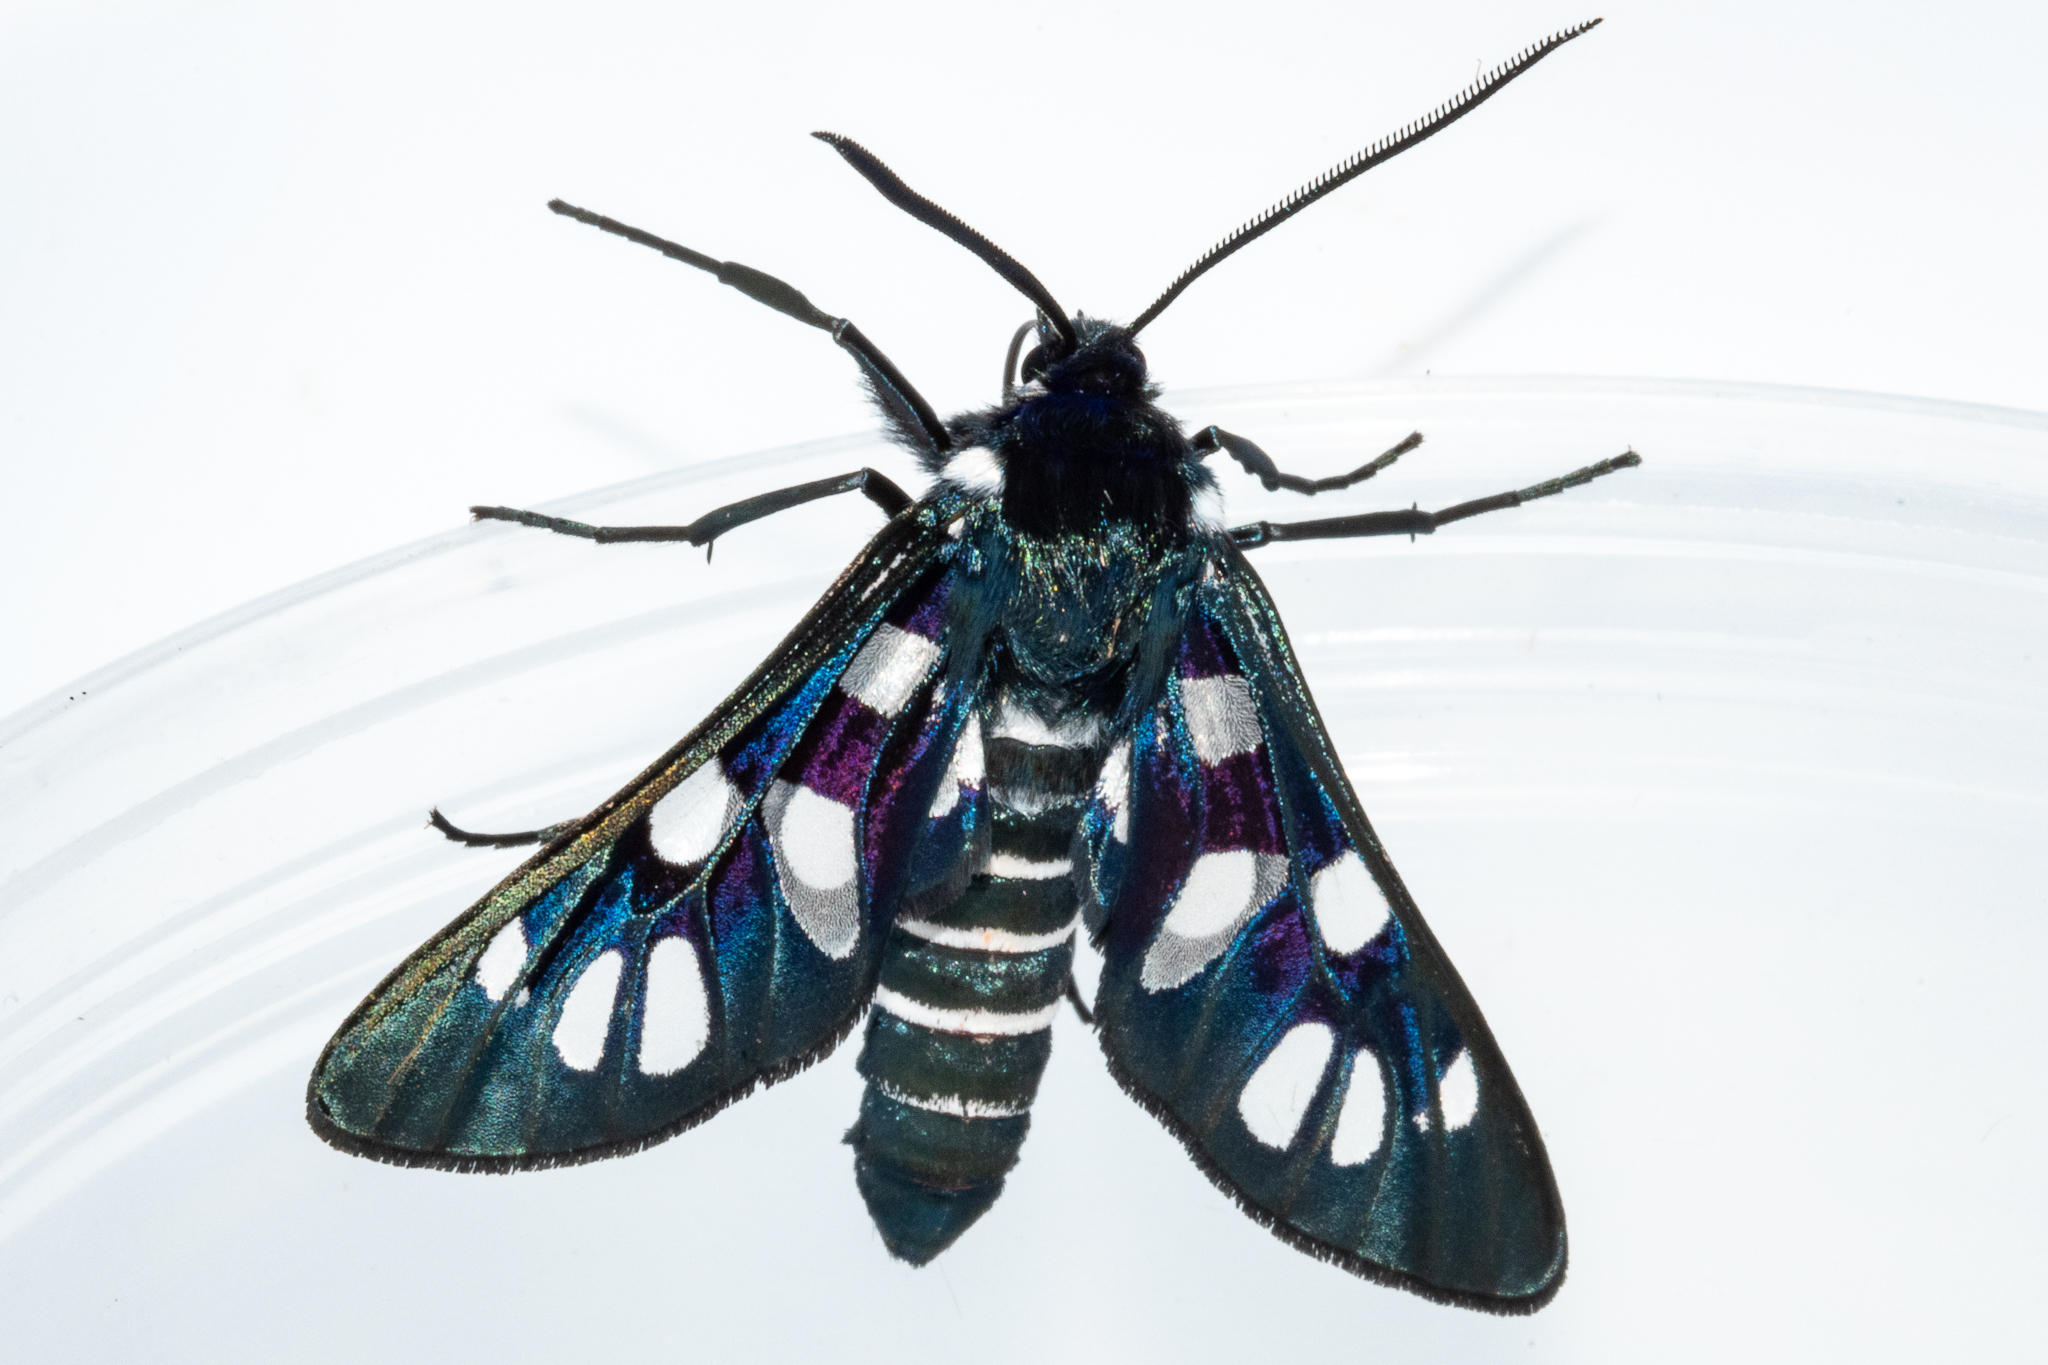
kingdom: Animalia
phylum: Arthropoda
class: Insecta
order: Lepidoptera
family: Erebidae
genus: Eutomis
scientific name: Eutomis minceus
